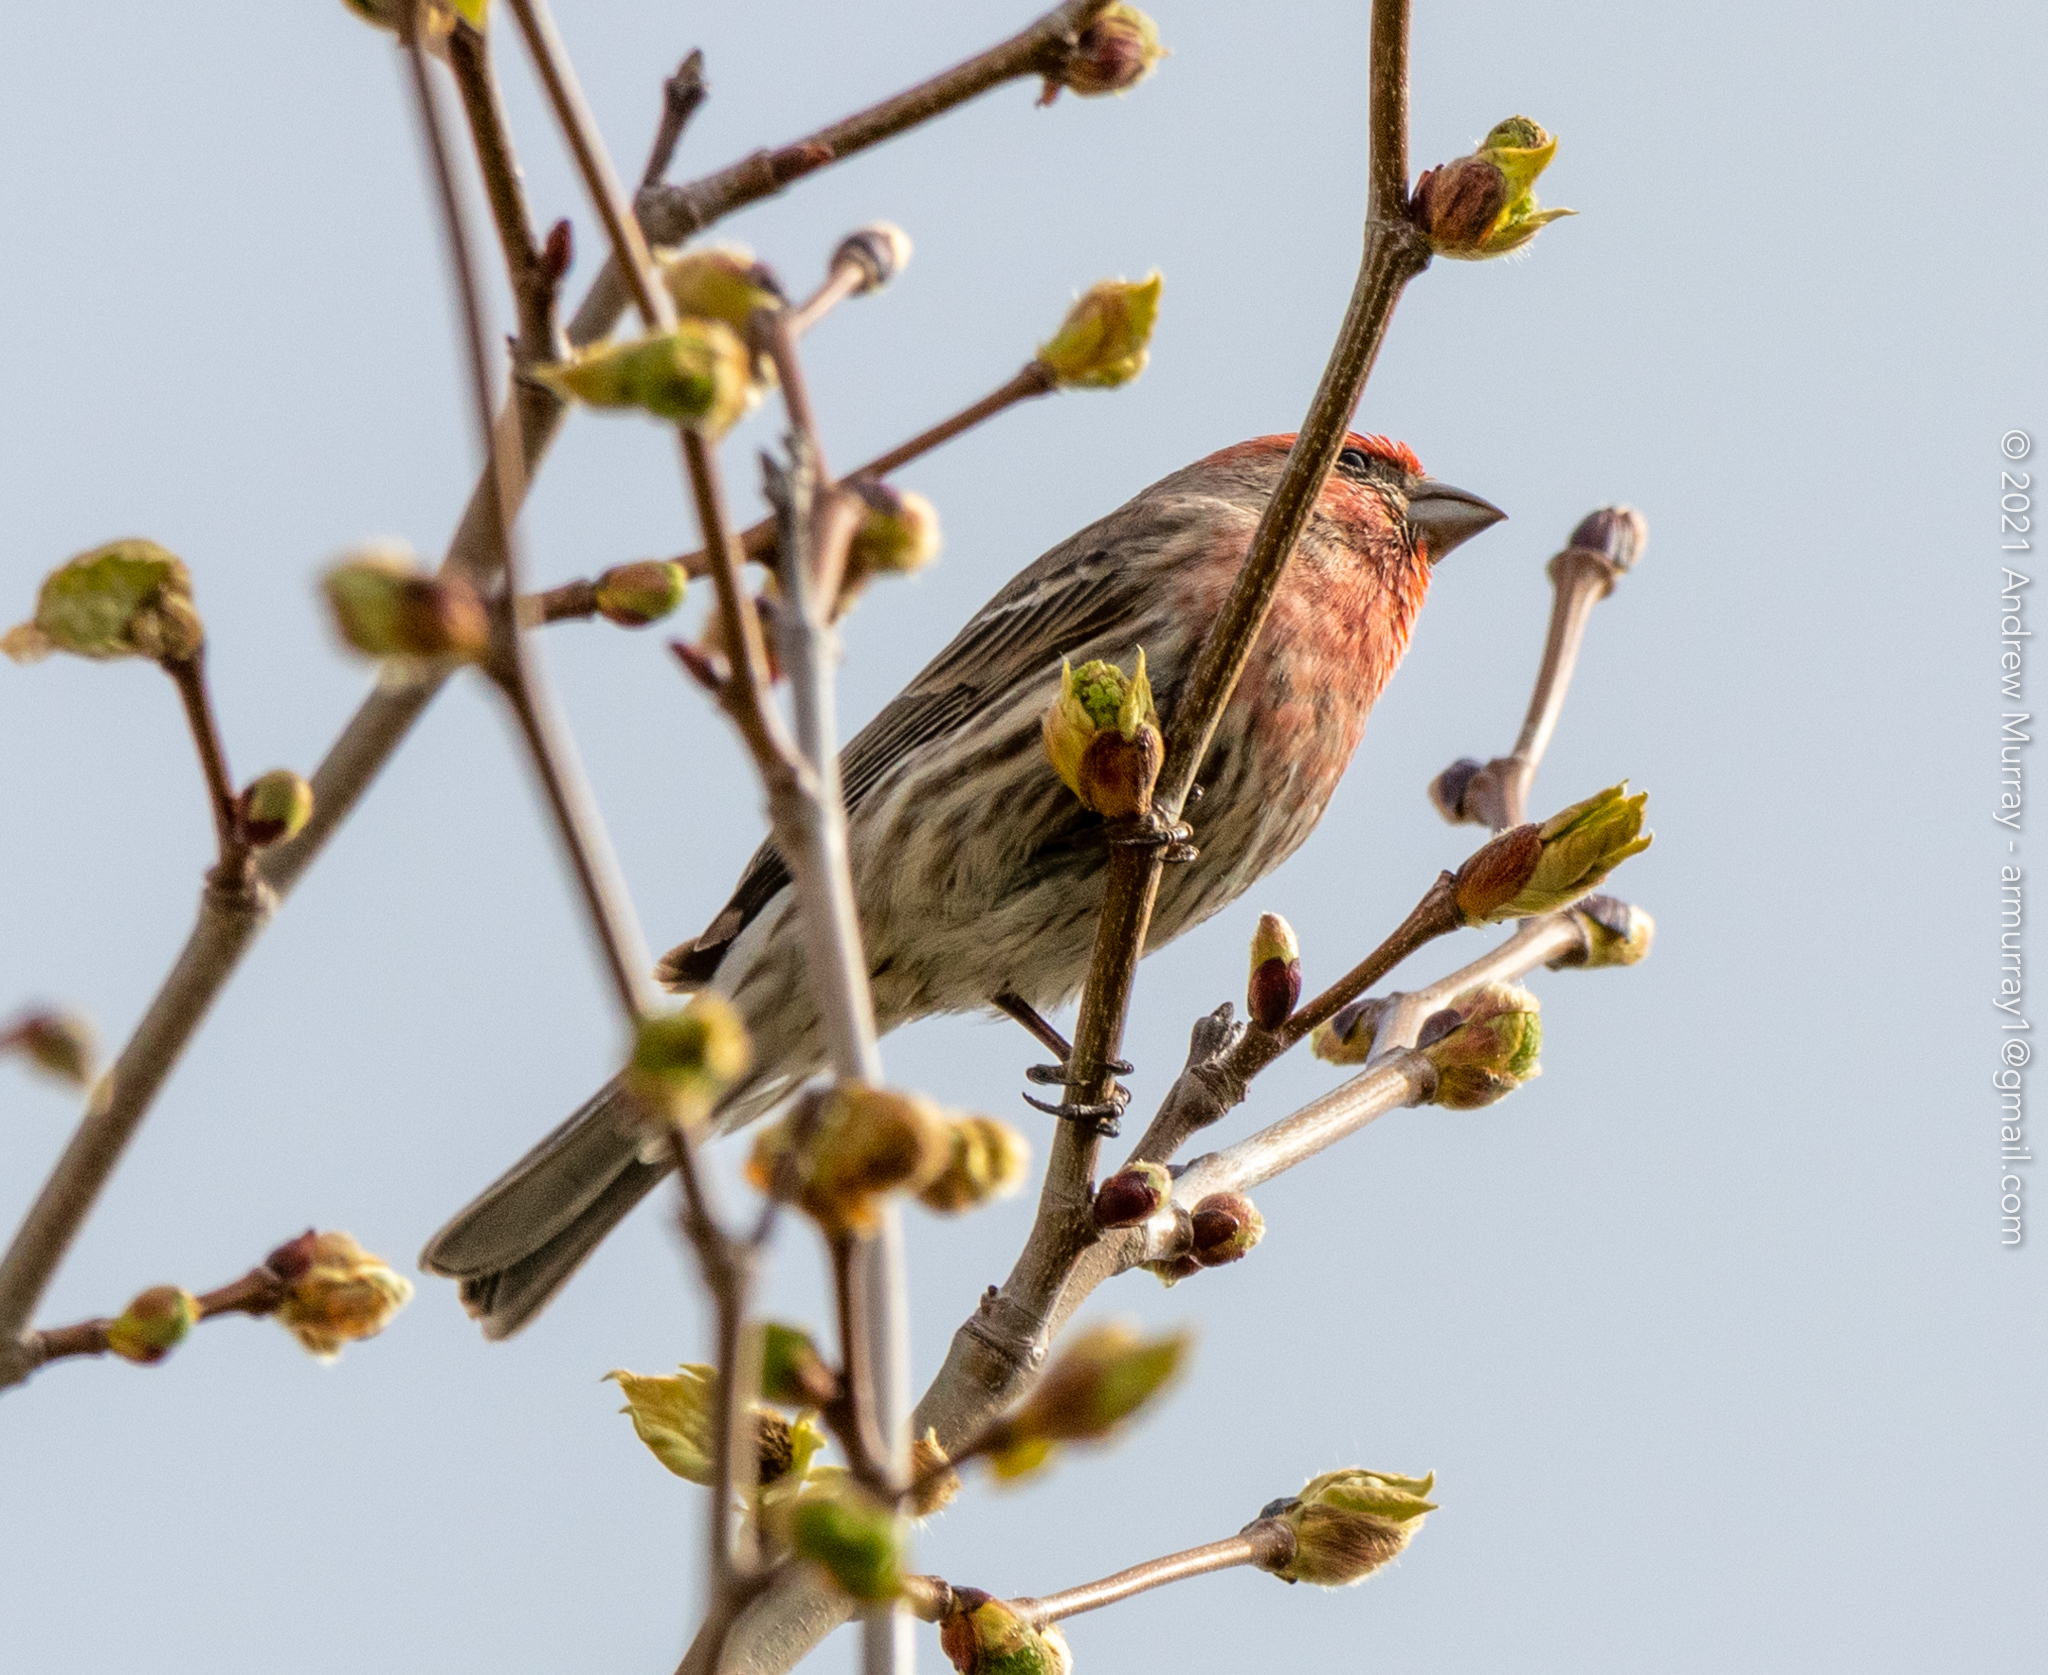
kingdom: Animalia
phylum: Chordata
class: Aves
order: Passeriformes
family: Fringillidae
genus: Haemorhous
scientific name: Haemorhous mexicanus
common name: House finch
